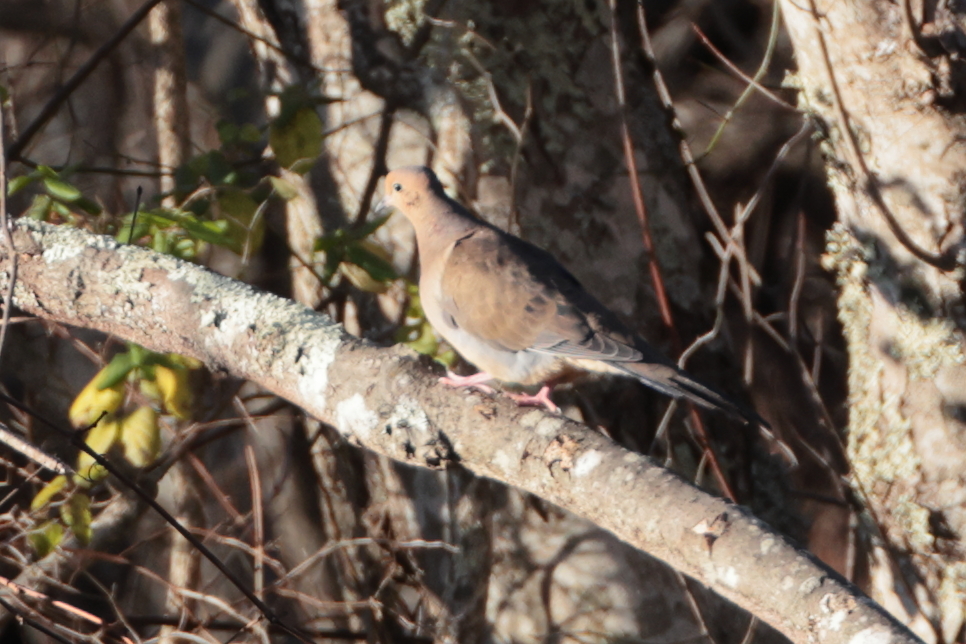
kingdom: Animalia
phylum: Chordata
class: Aves
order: Columbiformes
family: Columbidae
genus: Zenaida
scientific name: Zenaida macroura
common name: Mourning dove
